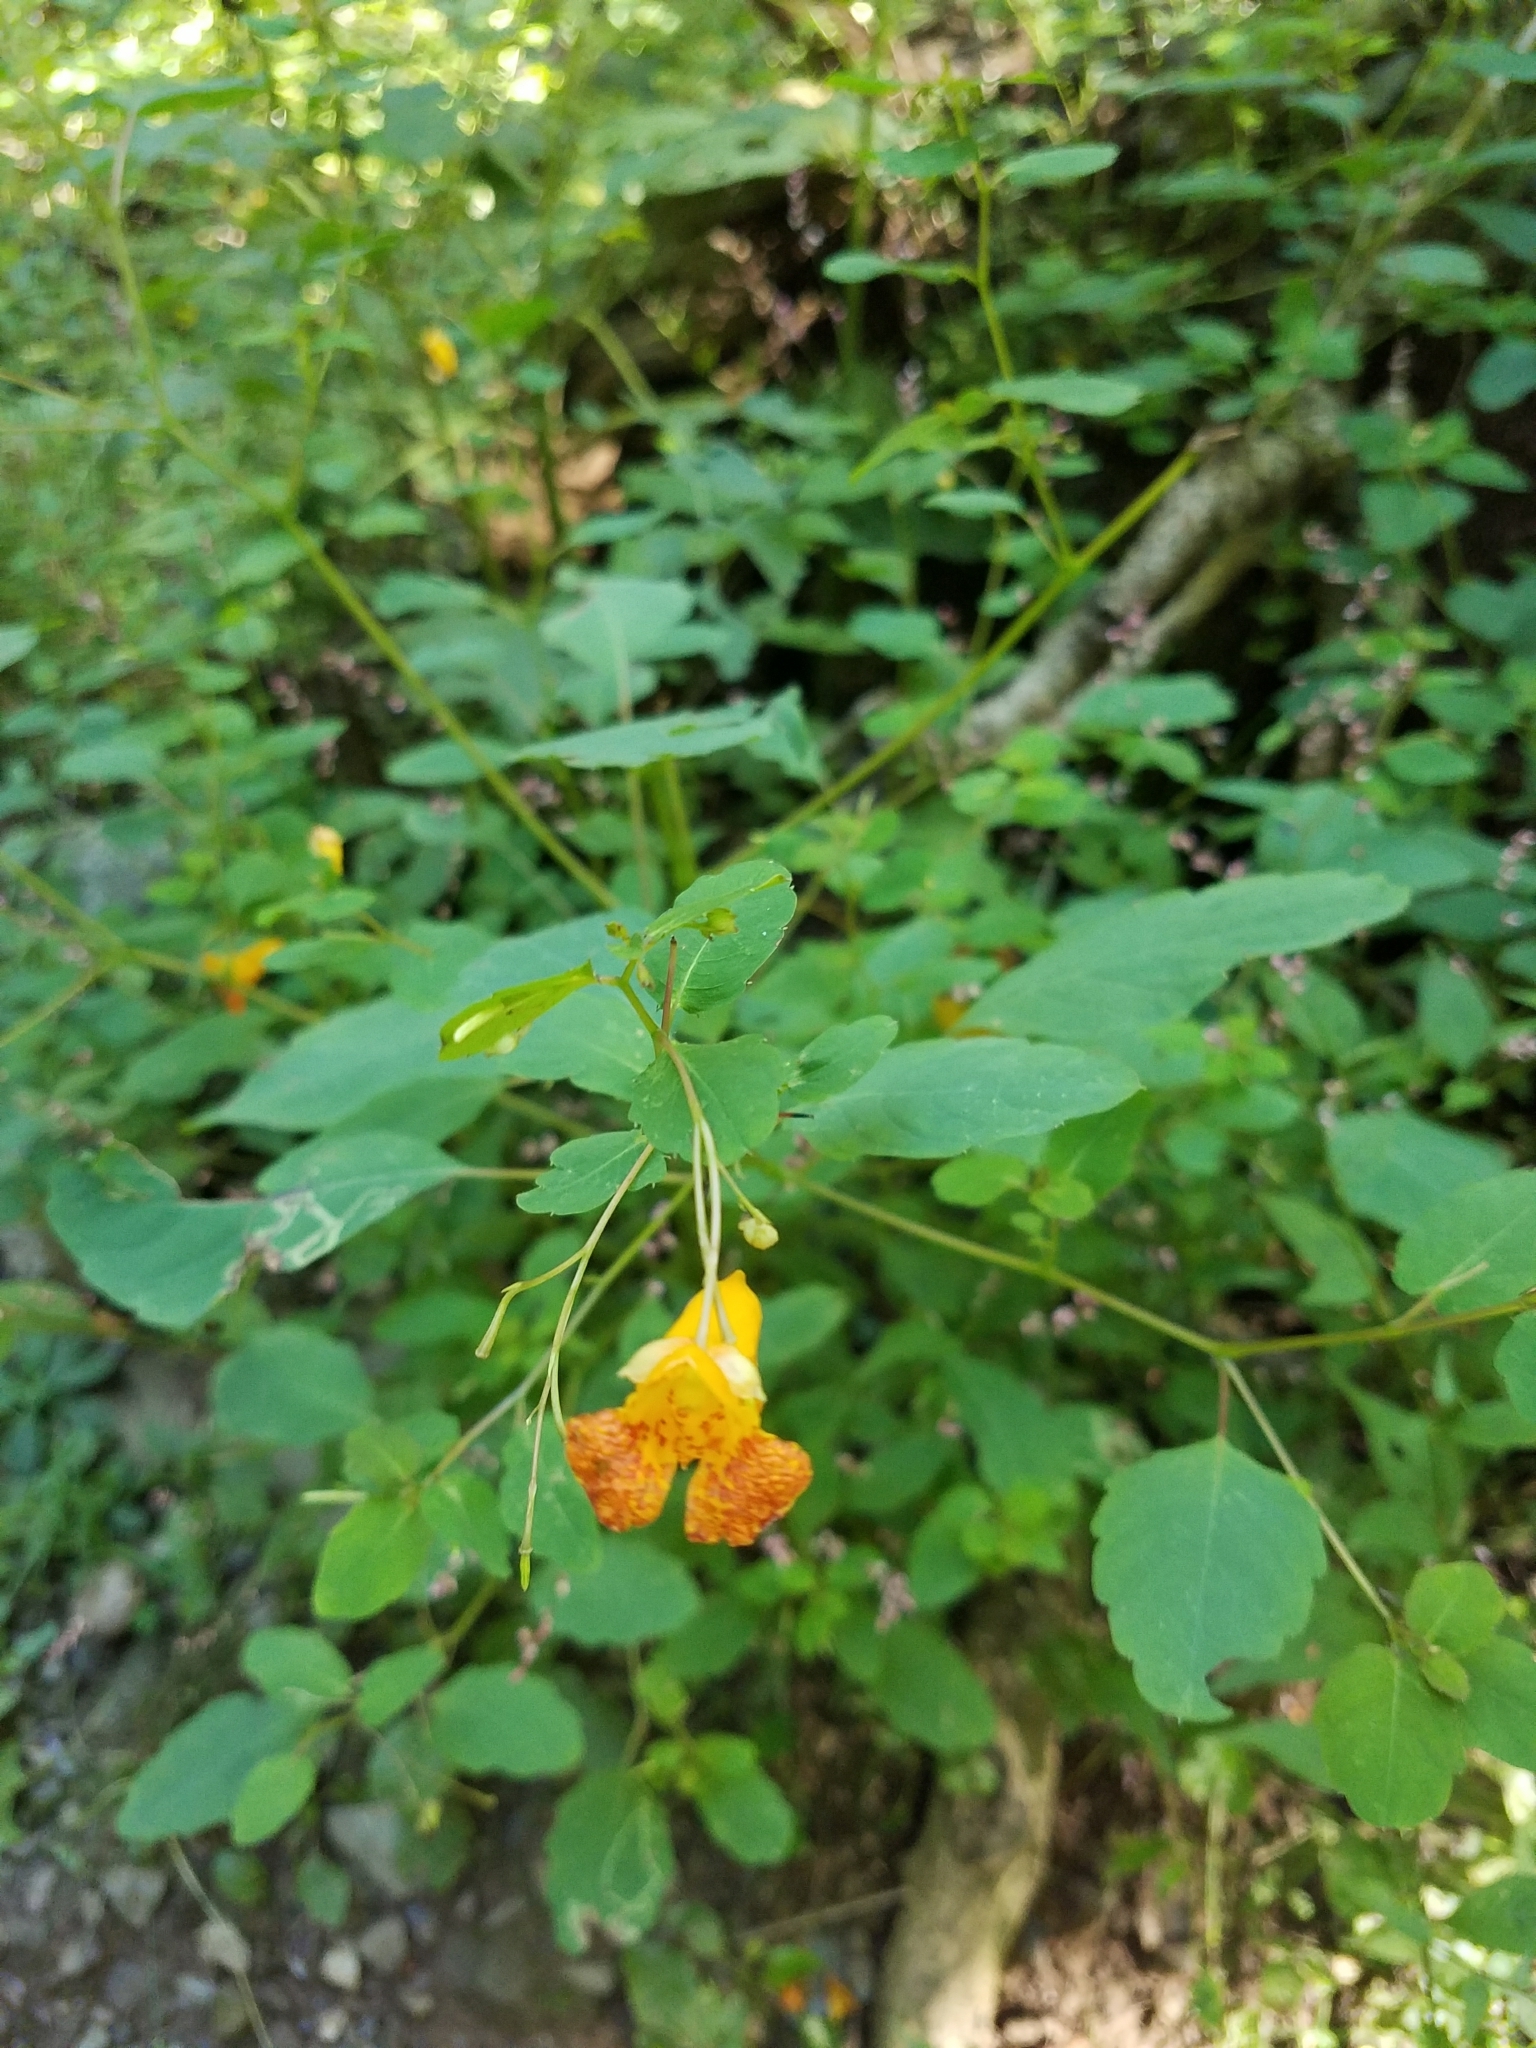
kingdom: Plantae
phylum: Tracheophyta
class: Magnoliopsida
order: Ericales
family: Balsaminaceae
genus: Impatiens
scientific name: Impatiens capensis
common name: Orange balsam
